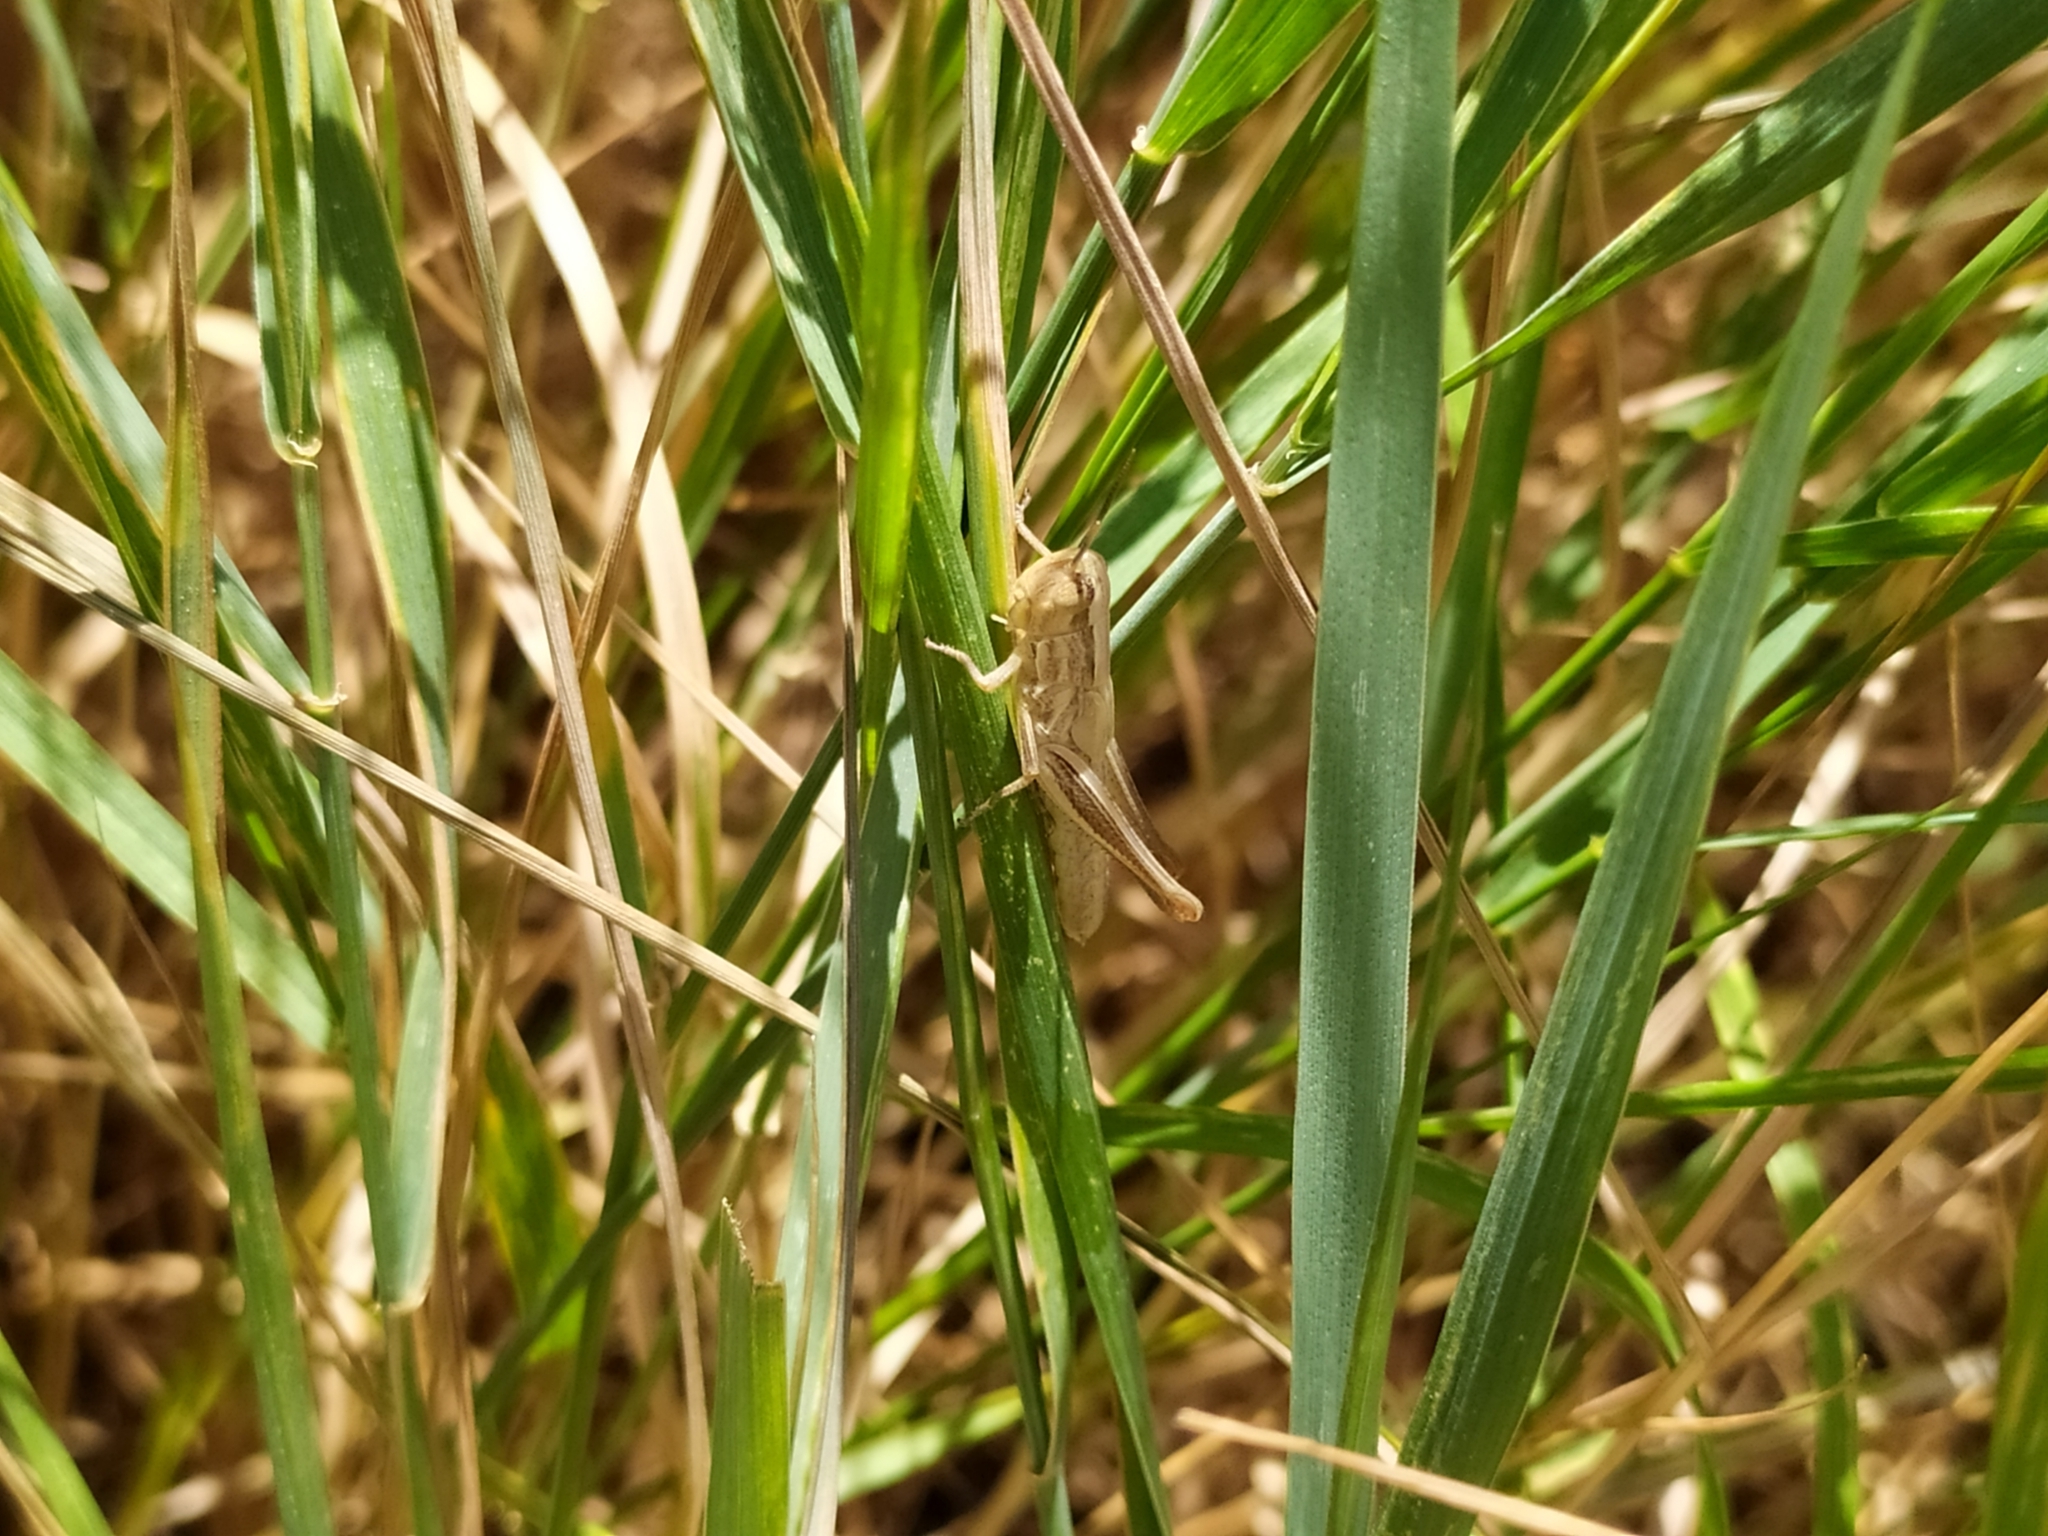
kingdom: Animalia
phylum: Arthropoda
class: Insecta
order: Orthoptera
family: Acrididae
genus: Euchorthippus
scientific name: Euchorthippus declivus
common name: Common straw grasshopper
